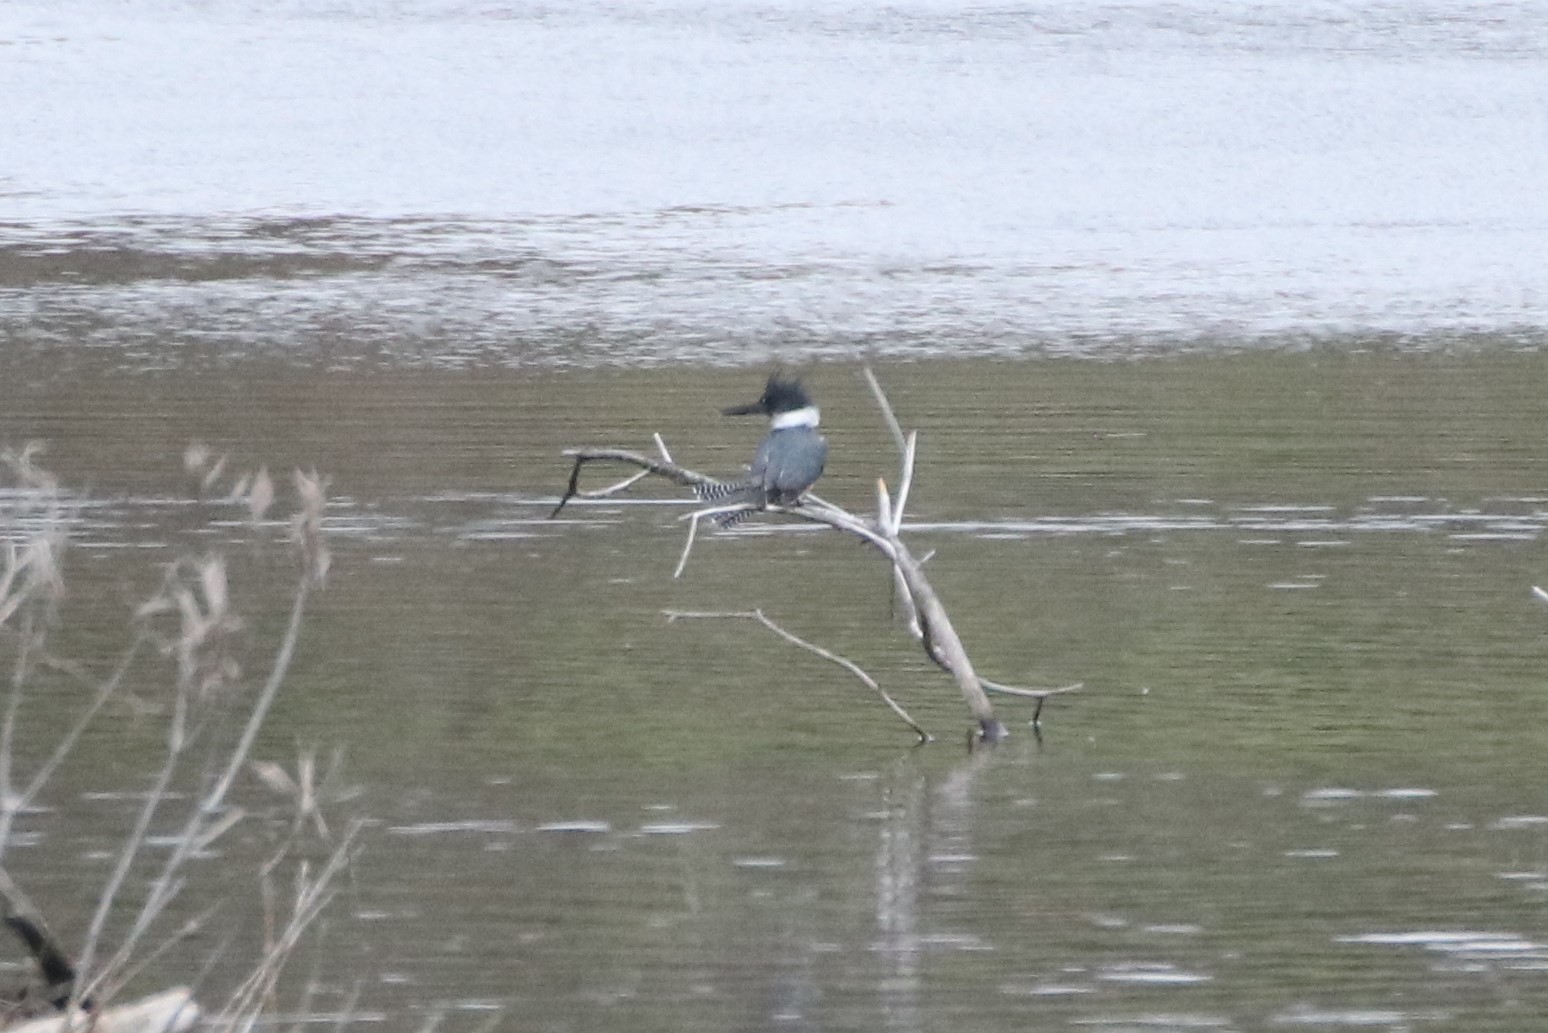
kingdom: Animalia
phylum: Chordata
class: Aves
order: Coraciiformes
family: Alcedinidae
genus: Megaceryle
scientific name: Megaceryle alcyon
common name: Belted kingfisher
